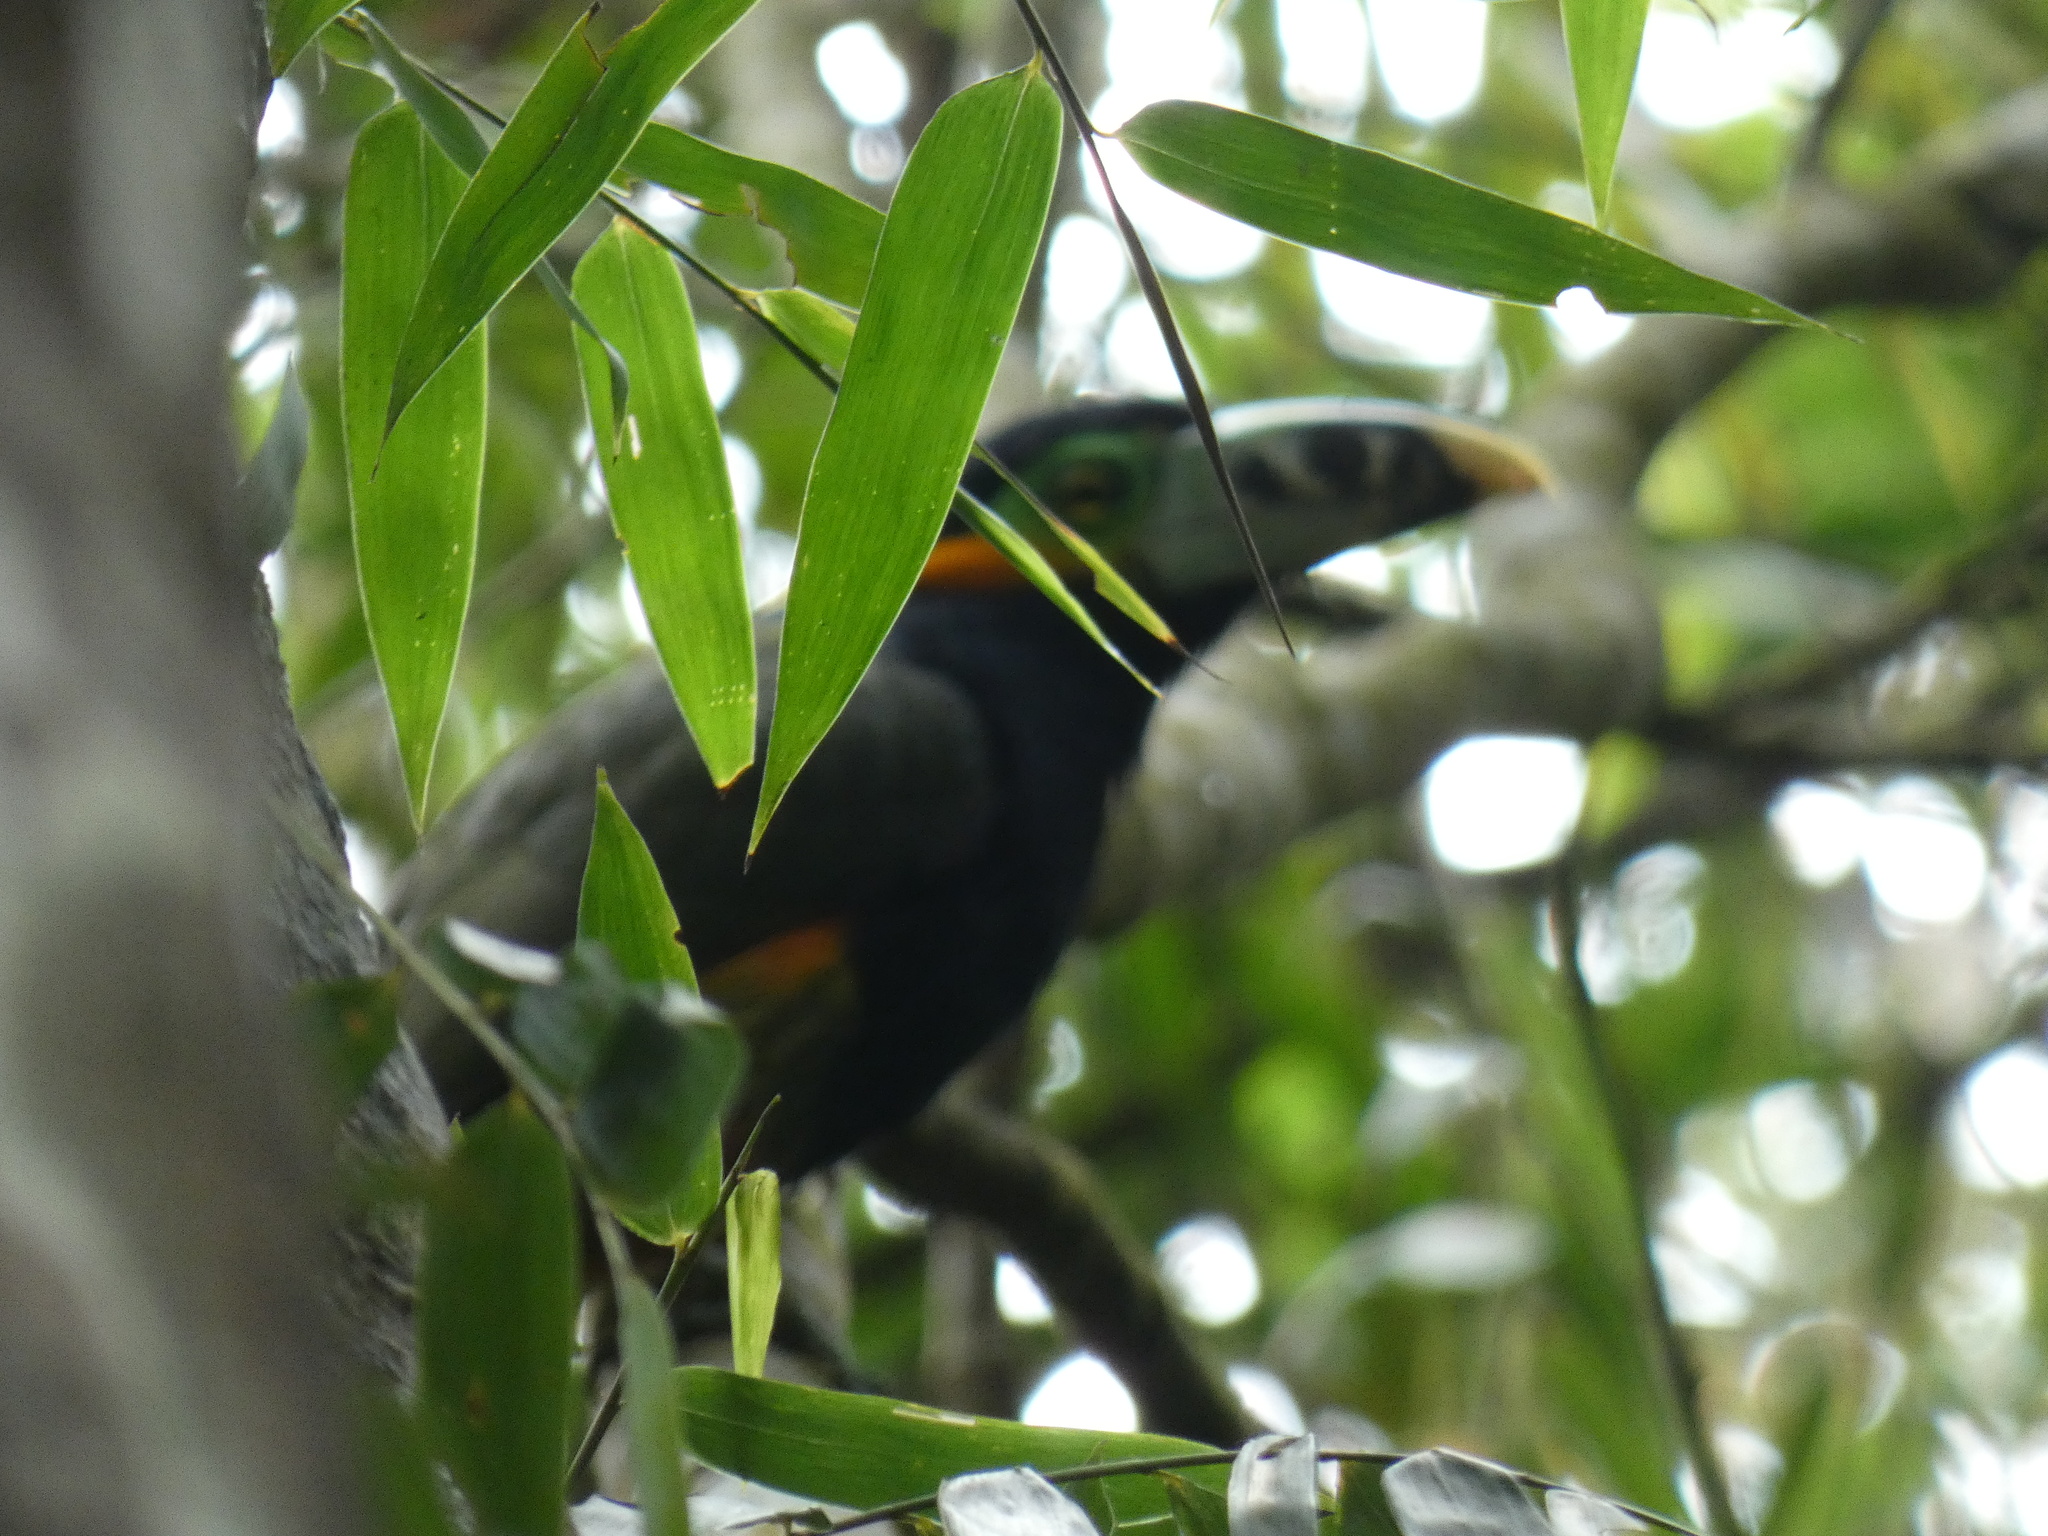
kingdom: Animalia
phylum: Chordata
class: Aves
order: Piciformes
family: Ramphastidae
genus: Selenidera
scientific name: Selenidera maculirostris
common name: Spot-billed toucanet
